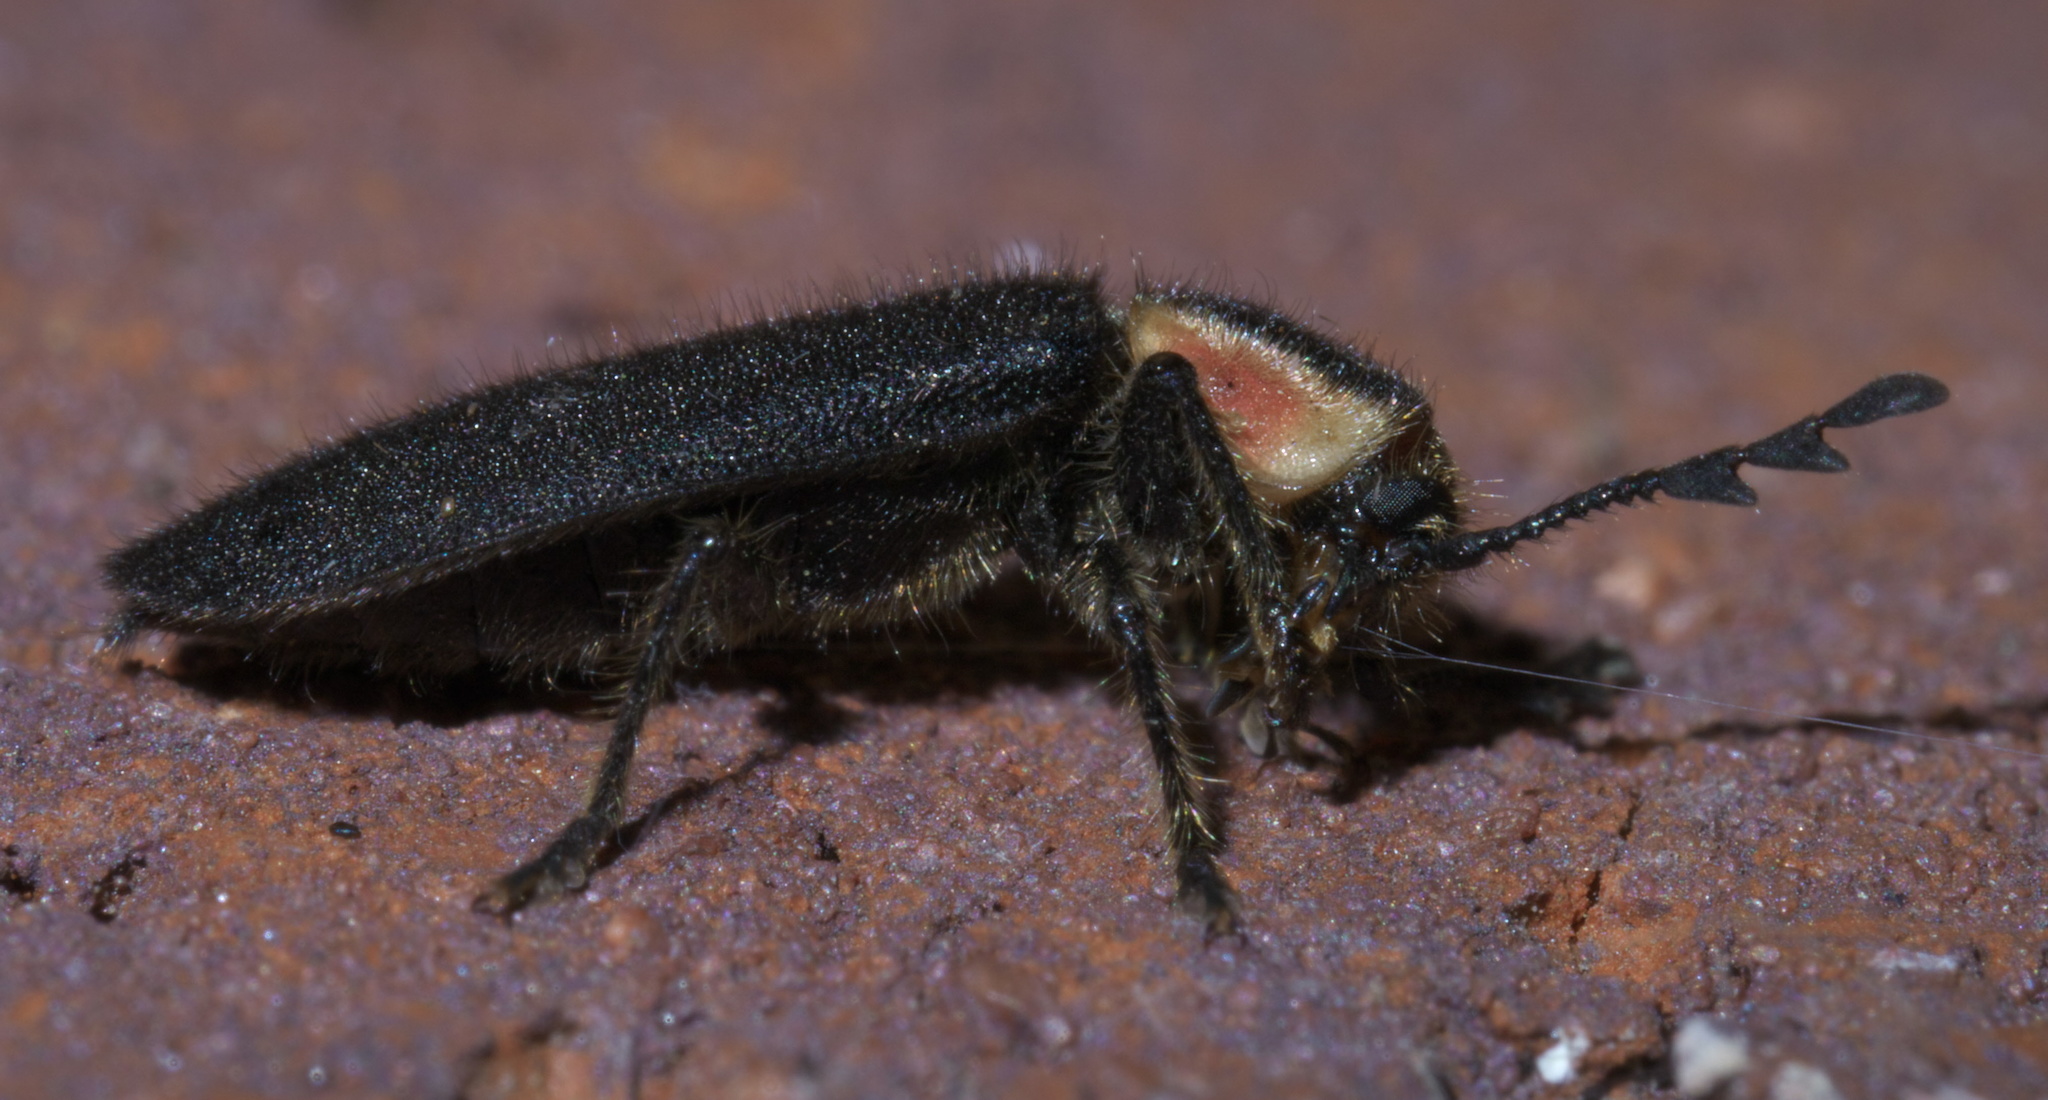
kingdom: Animalia
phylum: Arthropoda
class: Insecta
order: Coleoptera
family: Cleridae
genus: Chariessa
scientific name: Chariessa pilosa
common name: Pilose checkered beetle
